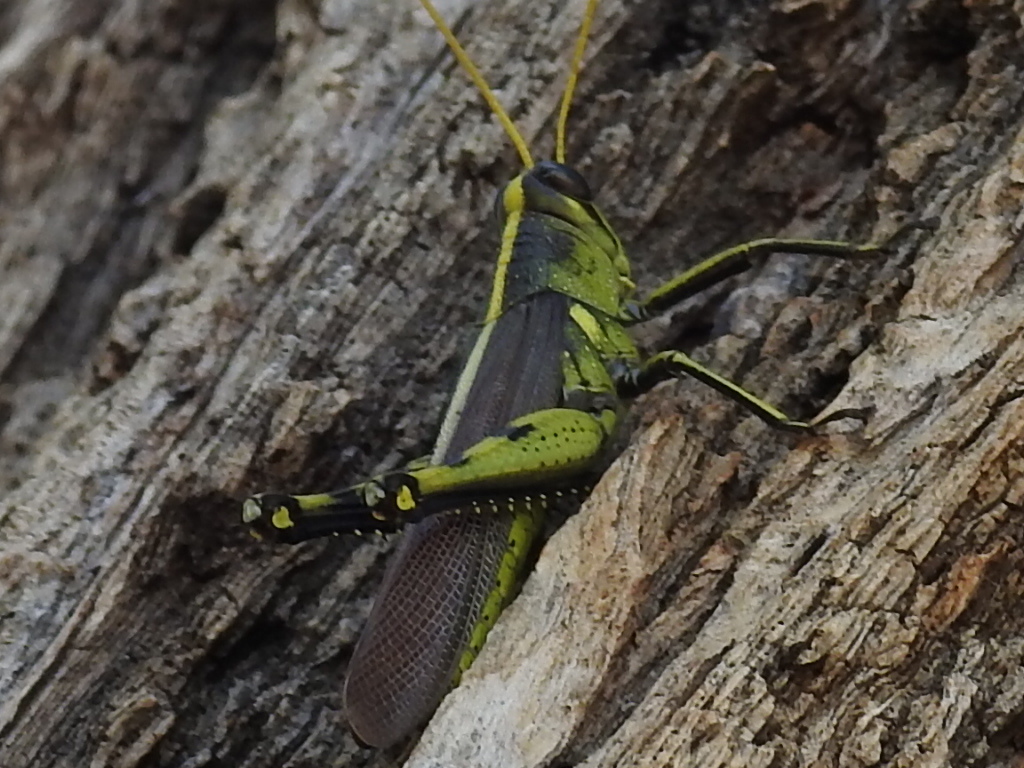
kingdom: Animalia
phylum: Arthropoda
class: Insecta
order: Orthoptera
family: Acrididae
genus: Schistocerca
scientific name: Schistocerca obscura
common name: Obscure bird grasshopper
